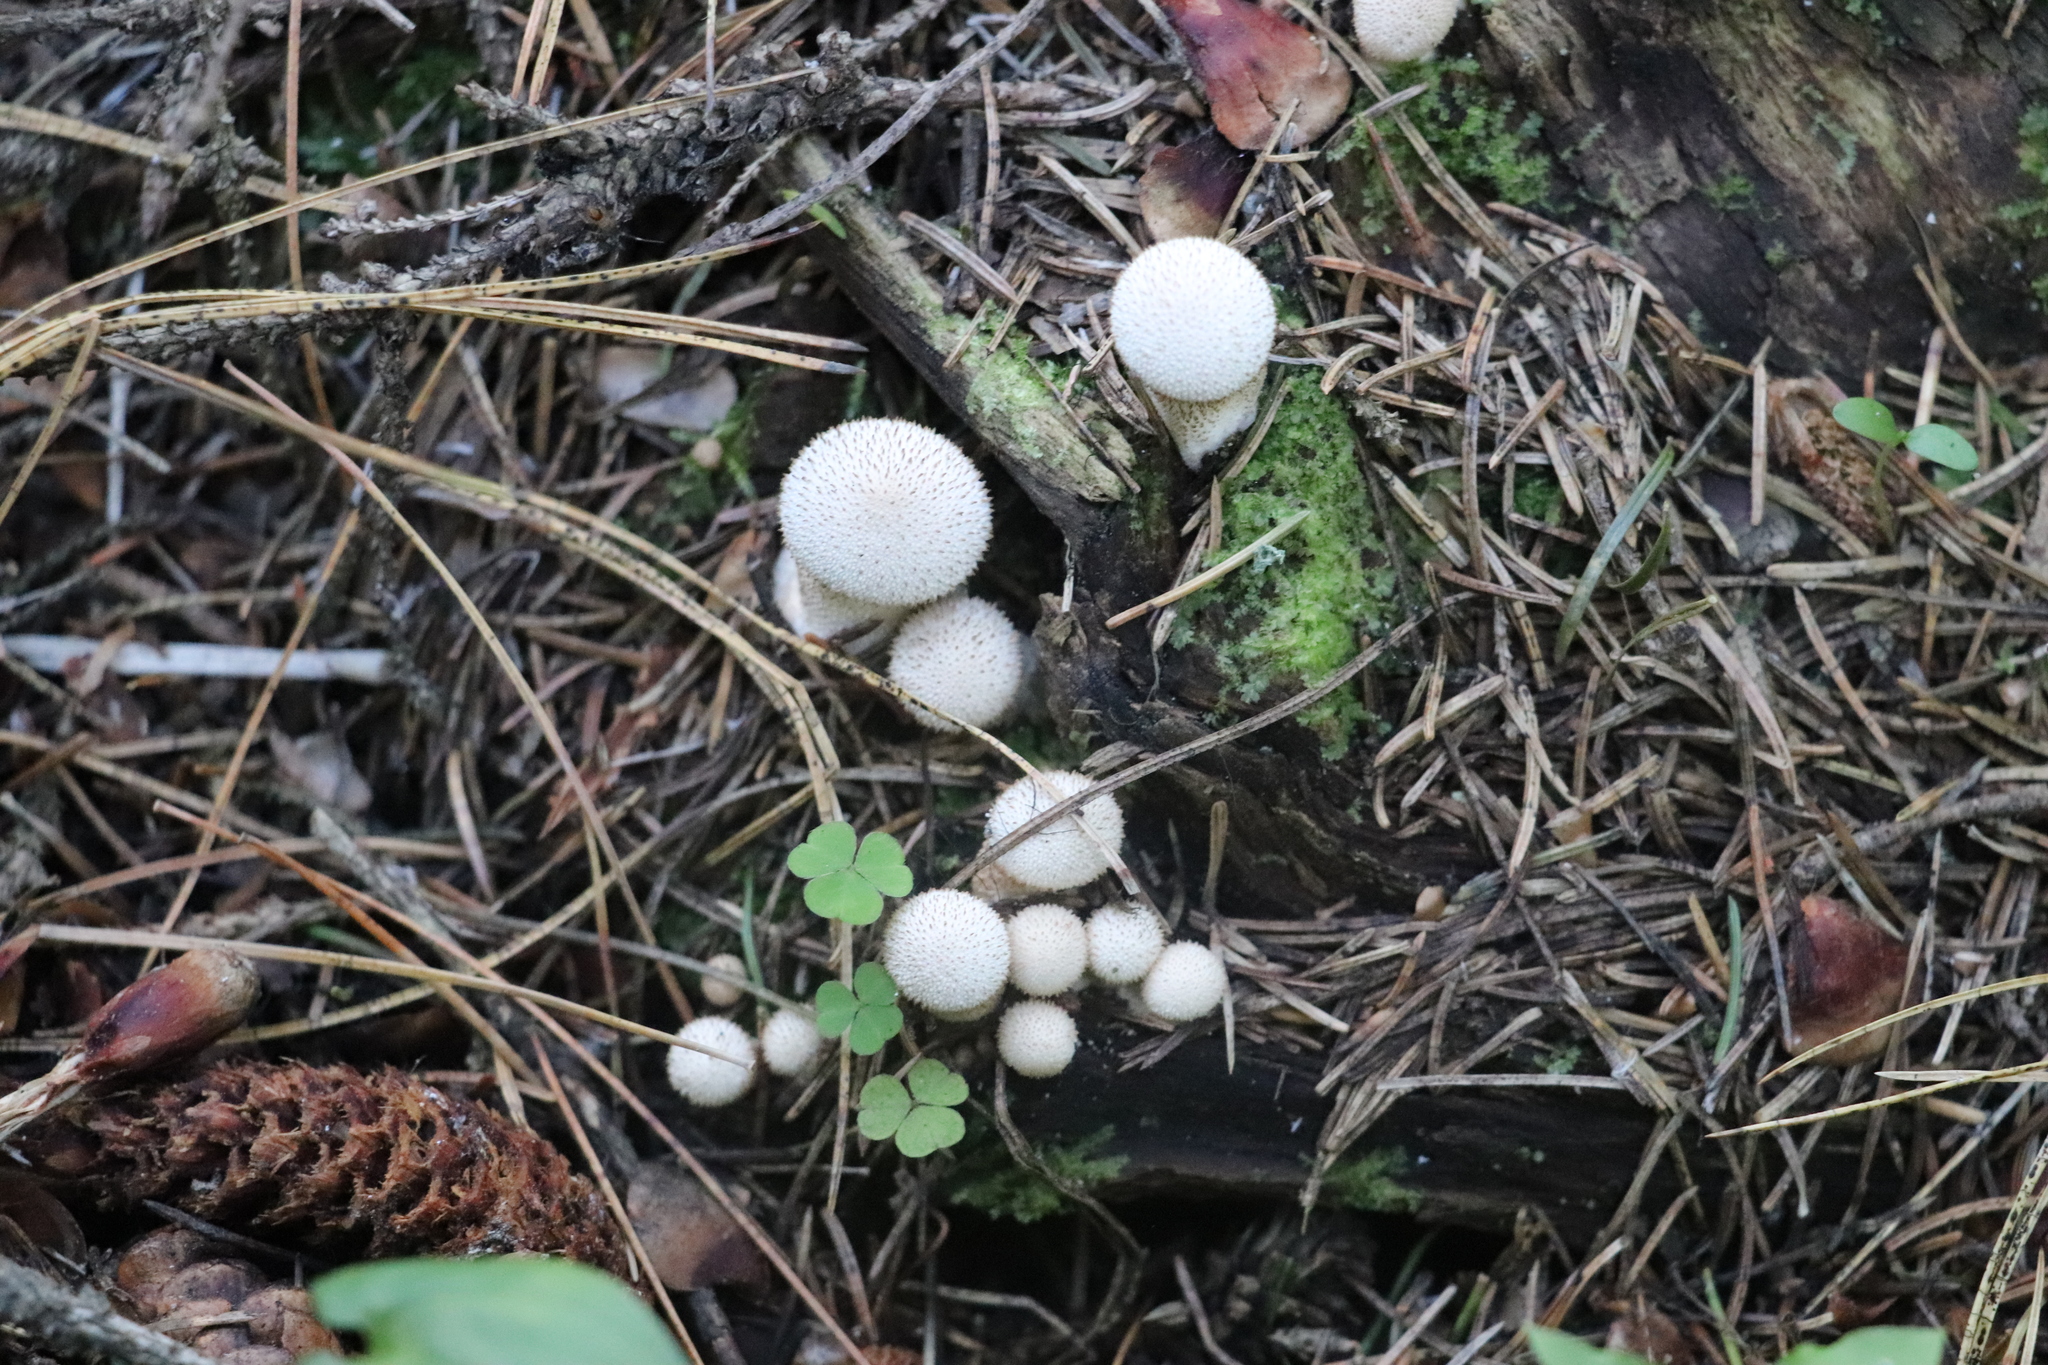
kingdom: Fungi
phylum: Basidiomycota
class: Agaricomycetes
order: Agaricales
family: Lycoperdaceae
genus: Lycoperdon
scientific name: Lycoperdon perlatum
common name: Common puffball
